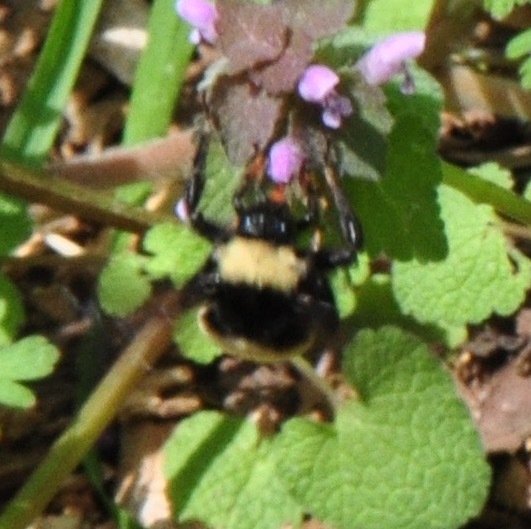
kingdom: Animalia
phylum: Arthropoda
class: Insecta
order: Hymenoptera
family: Apidae
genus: Bombus
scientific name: Bombus pensylvanicus
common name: Bumble bee
